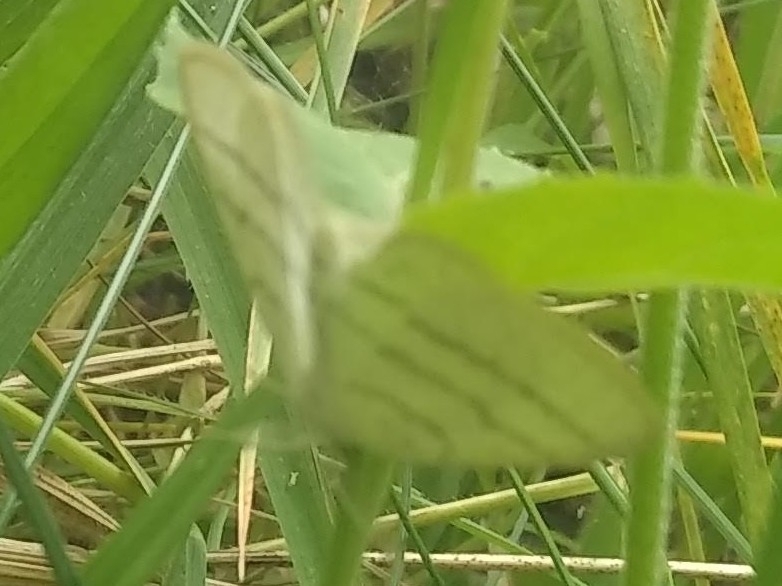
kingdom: Animalia
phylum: Arthropoda
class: Insecta
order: Lepidoptera
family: Geometridae
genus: Cabera
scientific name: Cabera pusaria
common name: Common white wave
